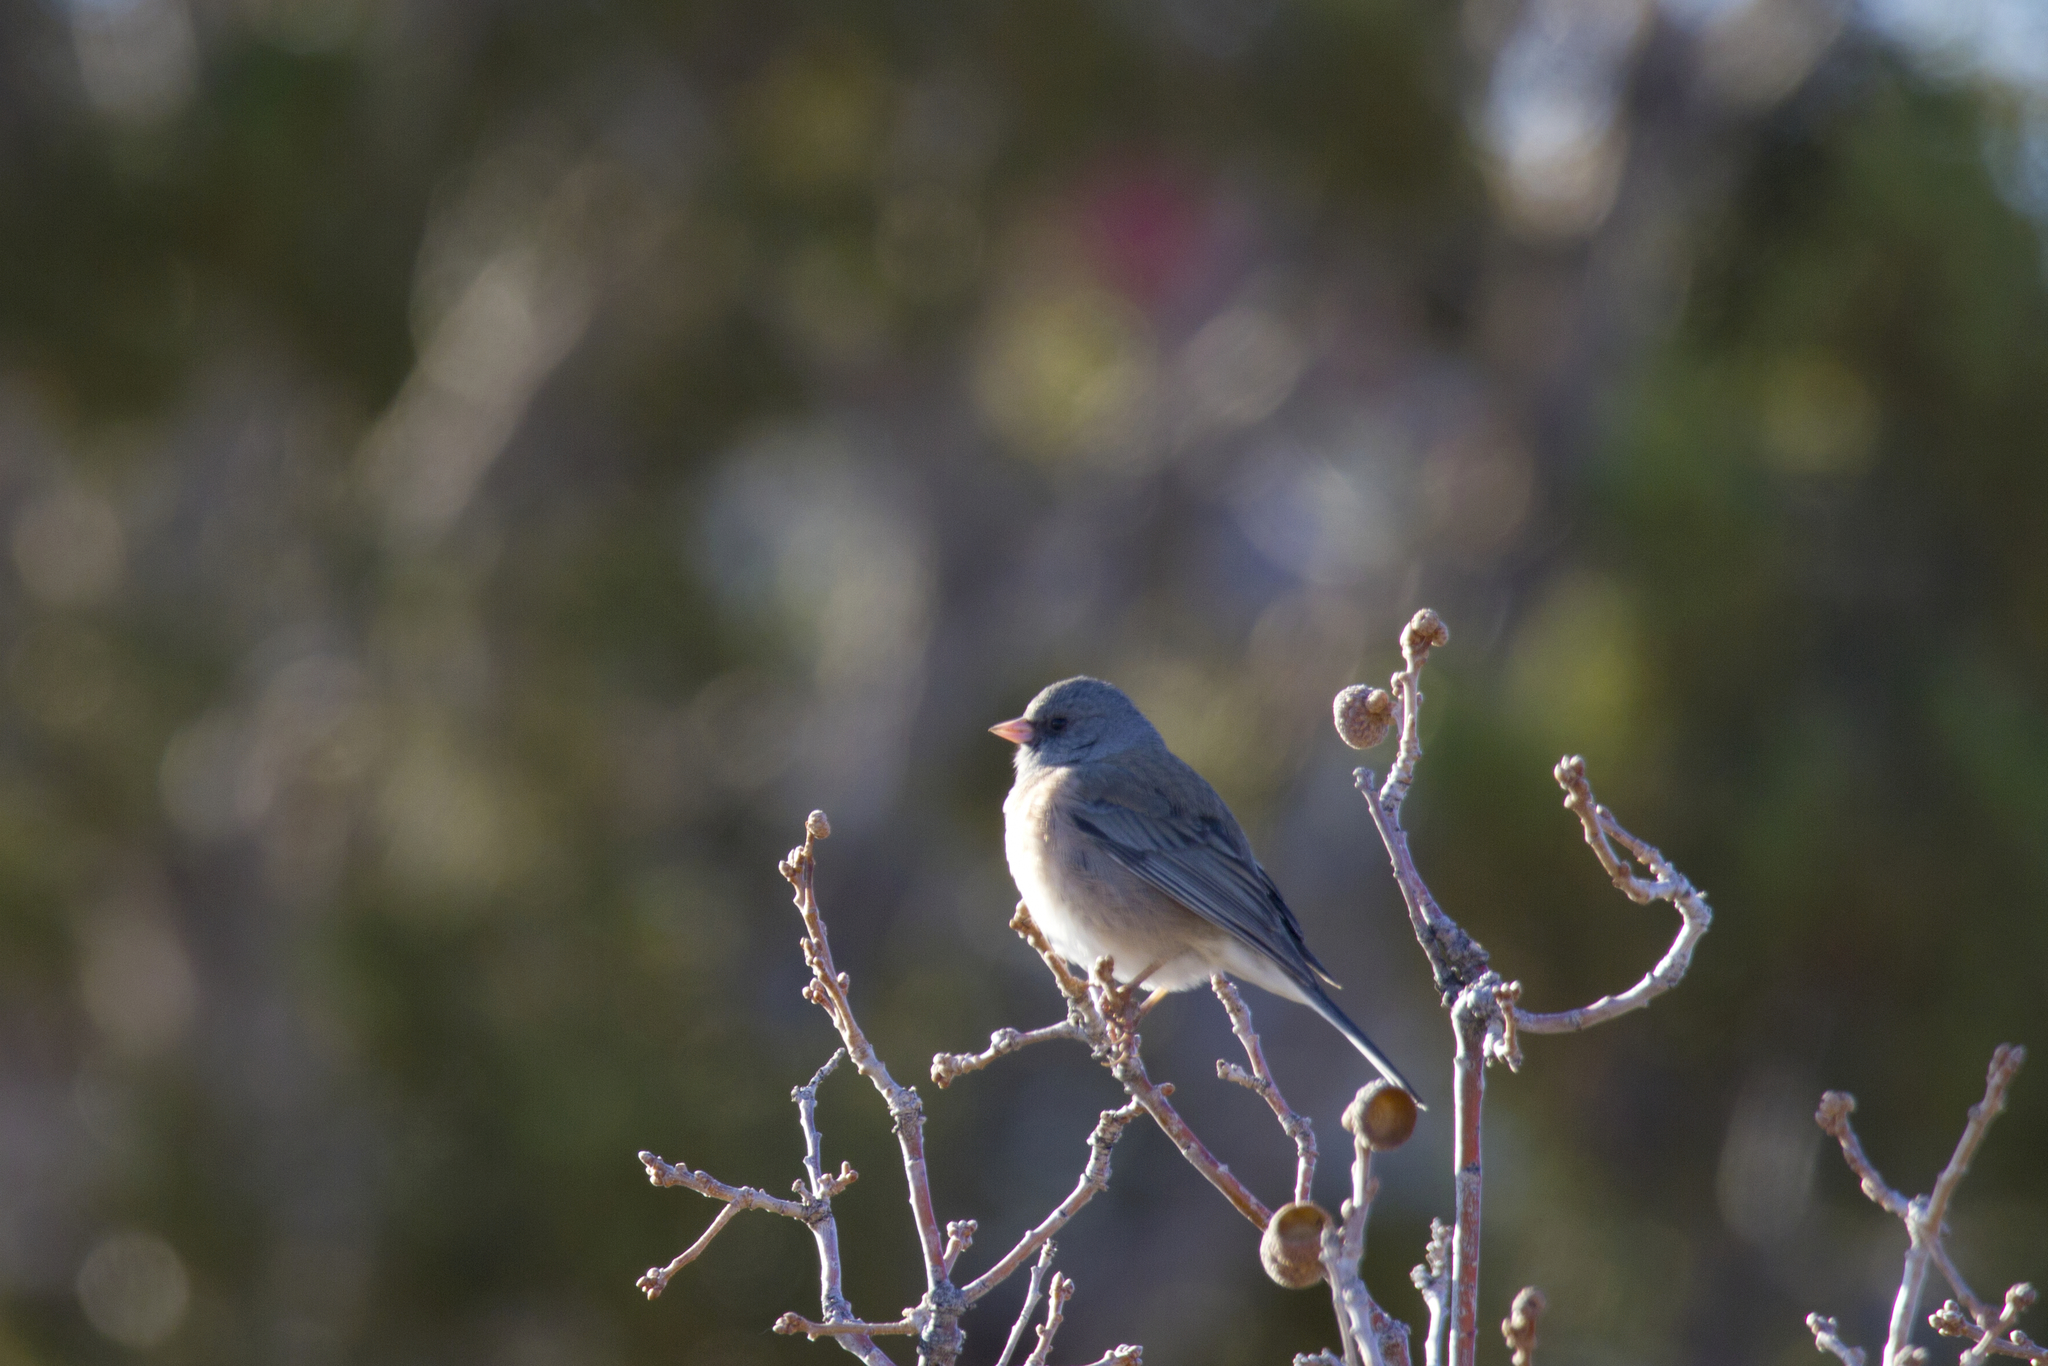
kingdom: Animalia
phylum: Chordata
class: Aves
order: Passeriformes
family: Passerellidae
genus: Junco
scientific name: Junco hyemalis
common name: Dark-eyed junco
